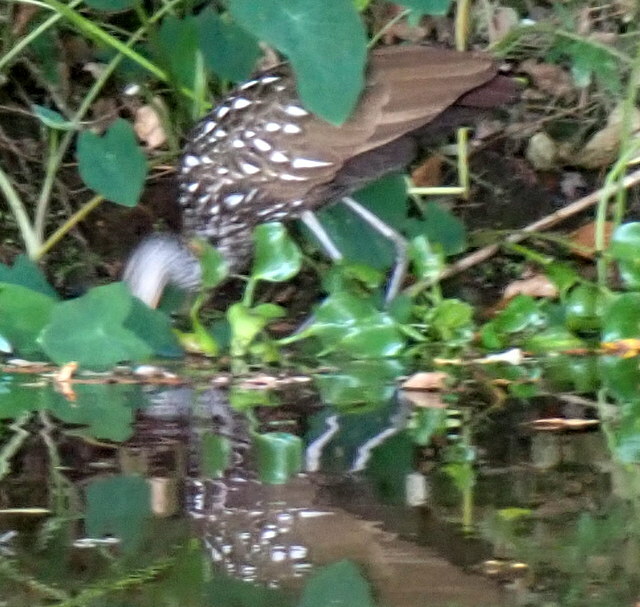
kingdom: Animalia
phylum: Chordata
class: Aves
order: Gruiformes
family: Aramidae
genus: Aramus
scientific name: Aramus guarauna
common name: Limpkin
